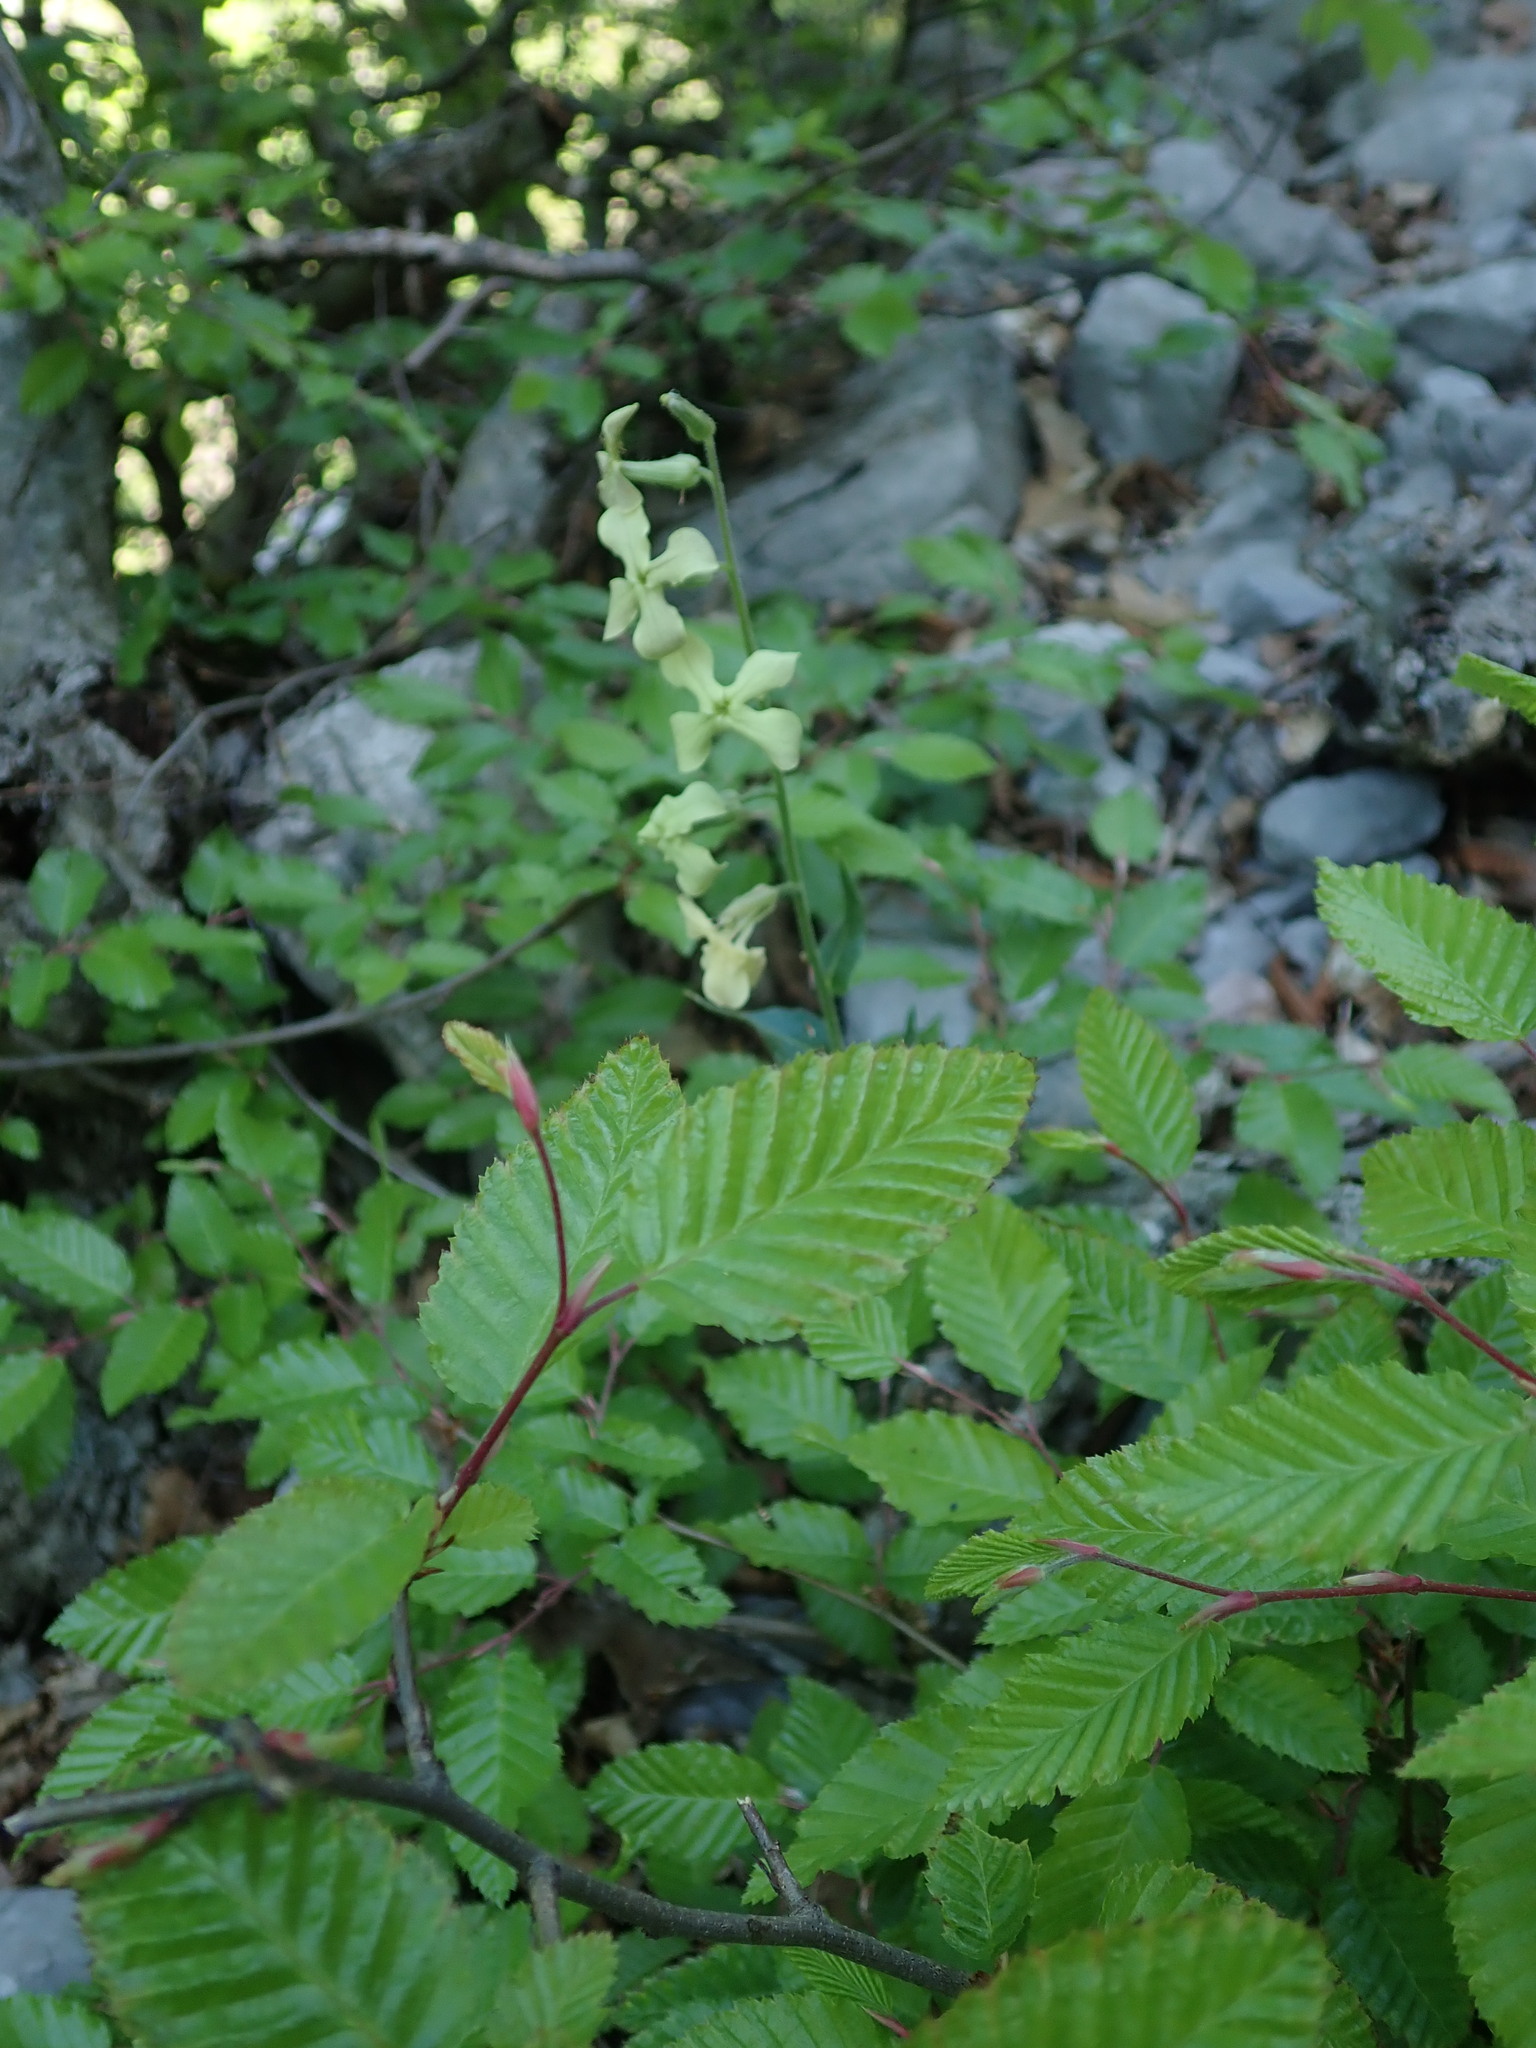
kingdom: Plantae
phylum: Tracheophyta
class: Magnoliopsida
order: Brassicales
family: Brassicaceae
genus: Hesperis
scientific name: Hesperis laciniata
